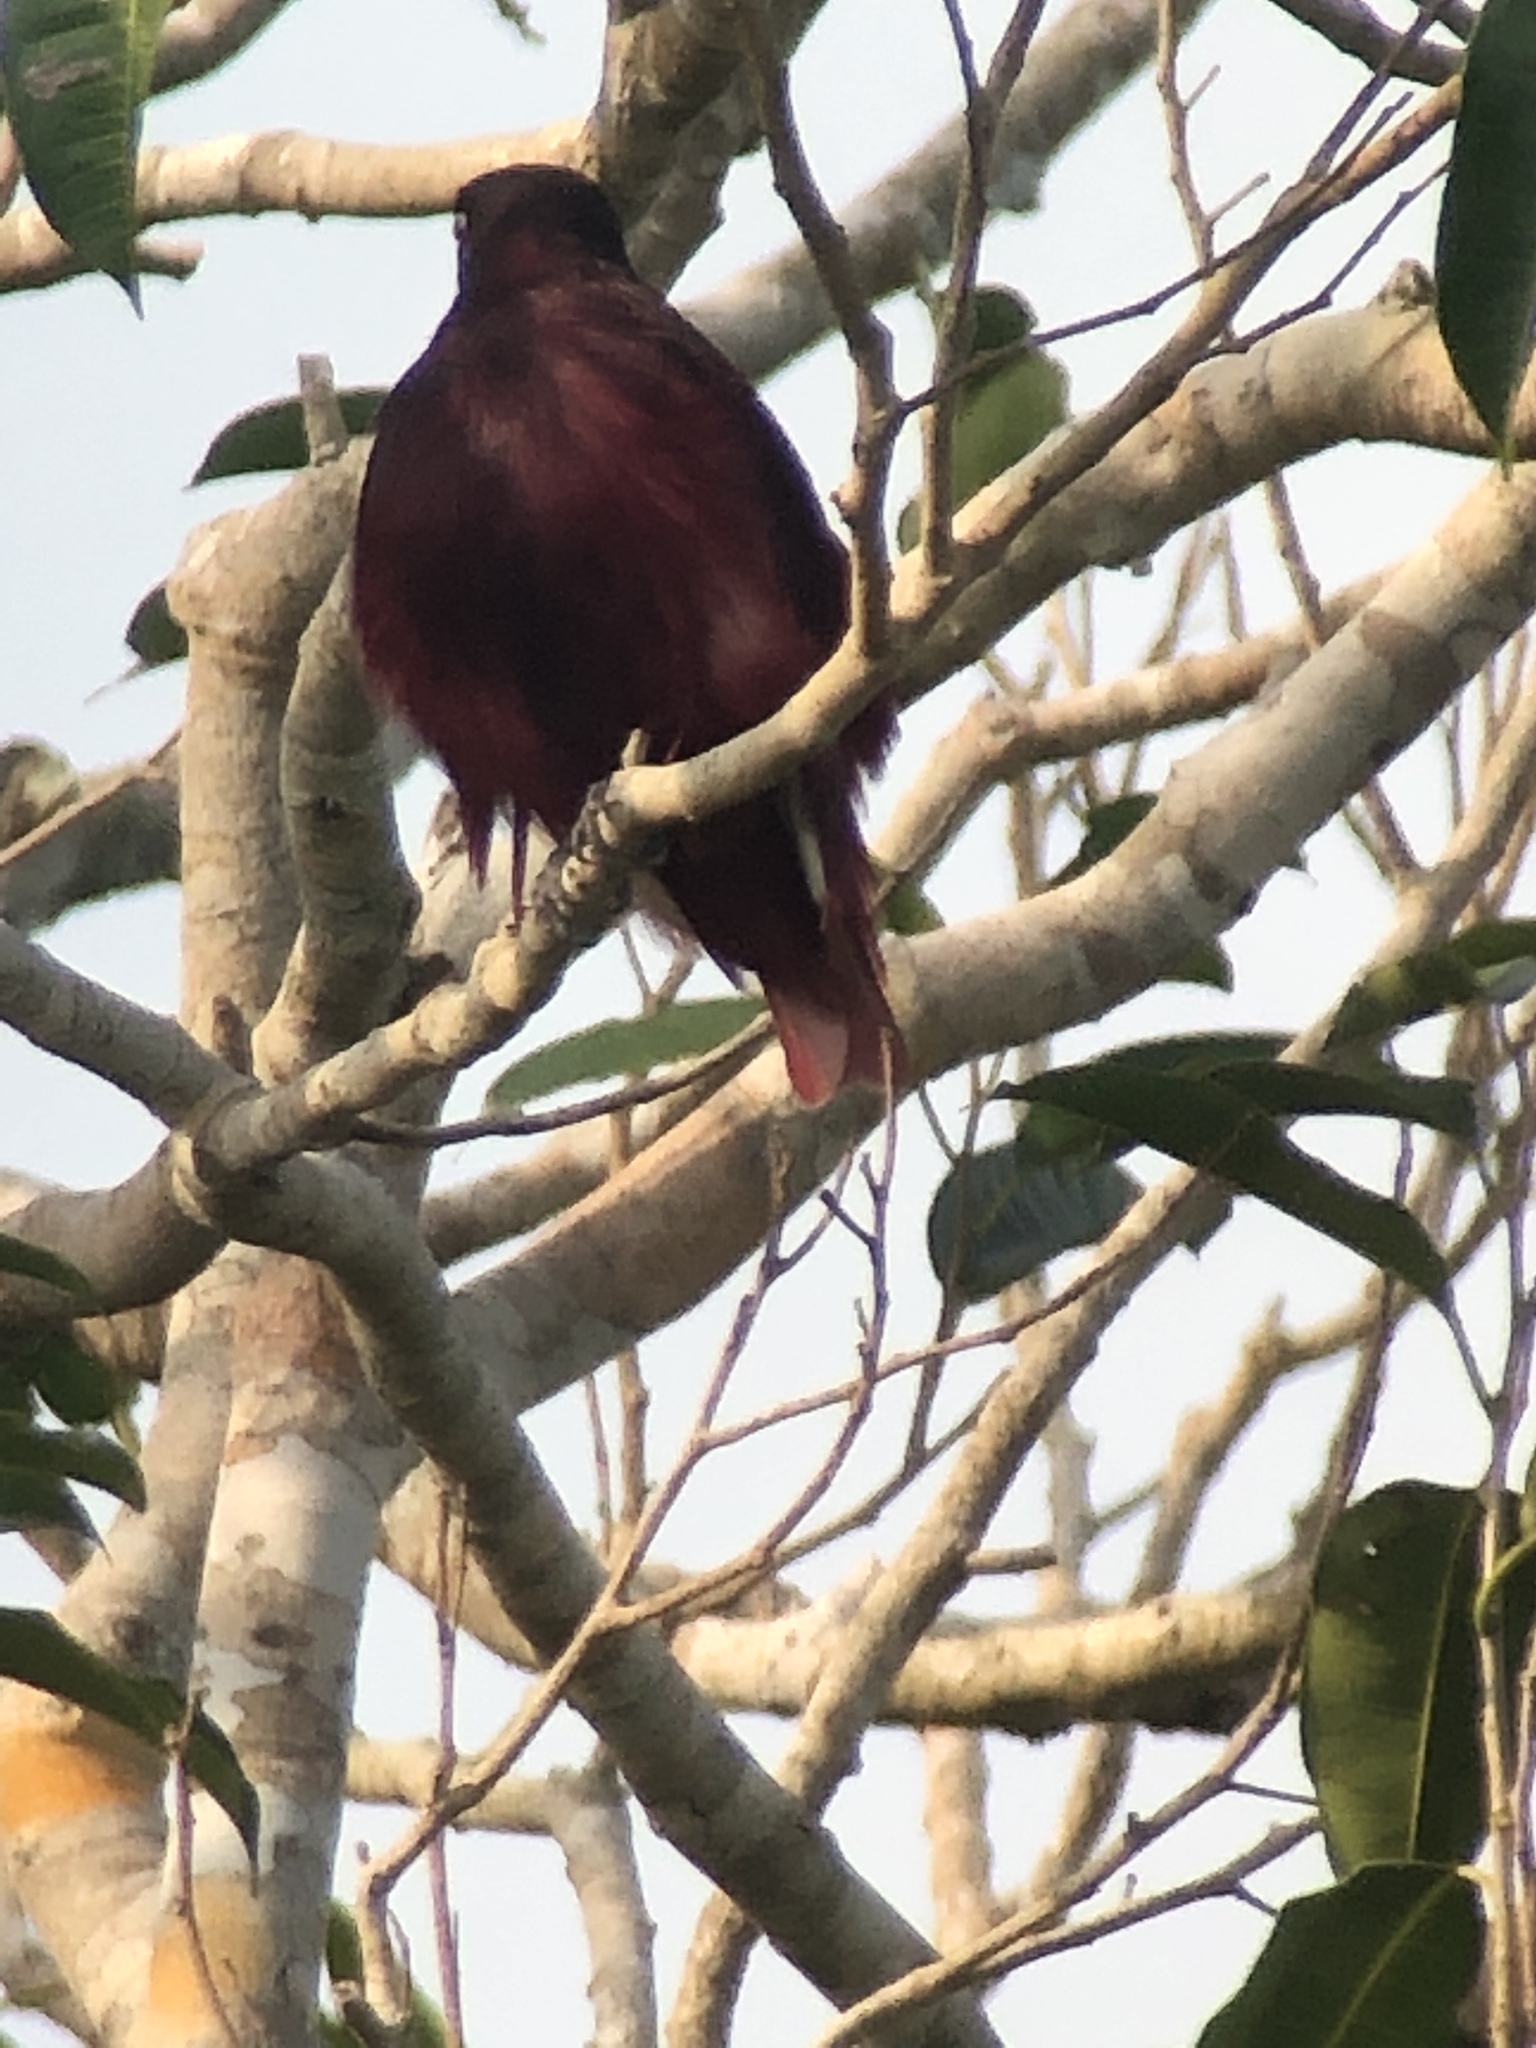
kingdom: Animalia
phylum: Chordata
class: Aves
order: Passeriformes
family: Cotingidae
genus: Xipholena
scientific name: Xipholena punicea
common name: Pompadour cotinga
